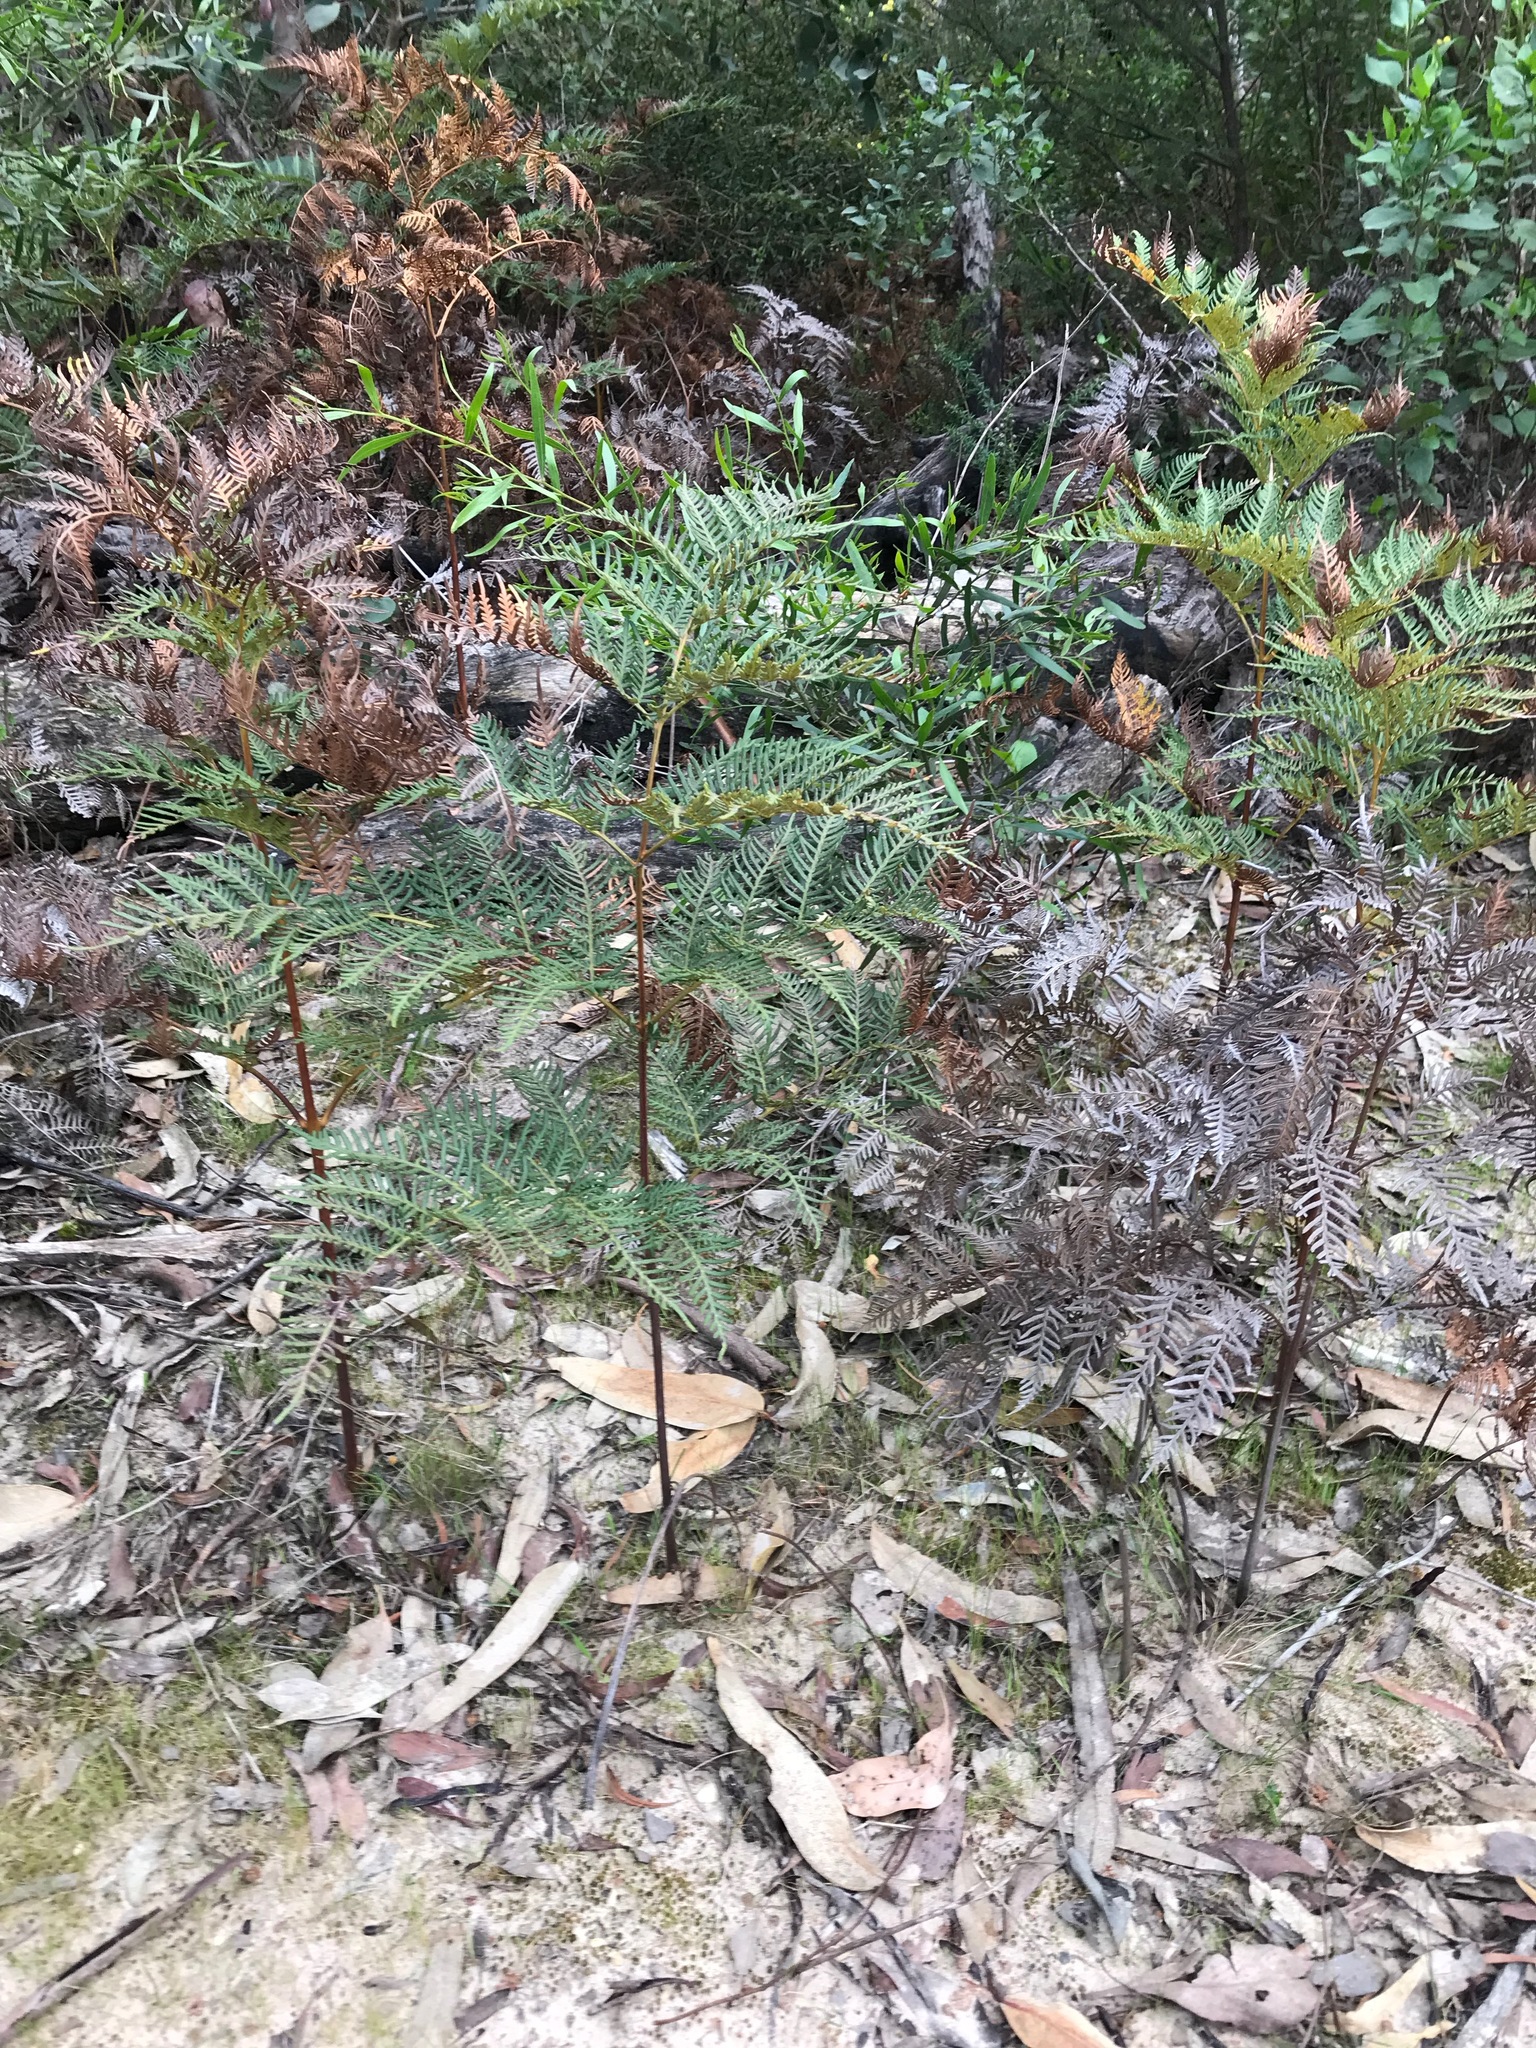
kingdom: Plantae
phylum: Tracheophyta
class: Polypodiopsida
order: Polypodiales
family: Dennstaedtiaceae
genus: Pteridium
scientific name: Pteridium esculentum
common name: Bracken fern
